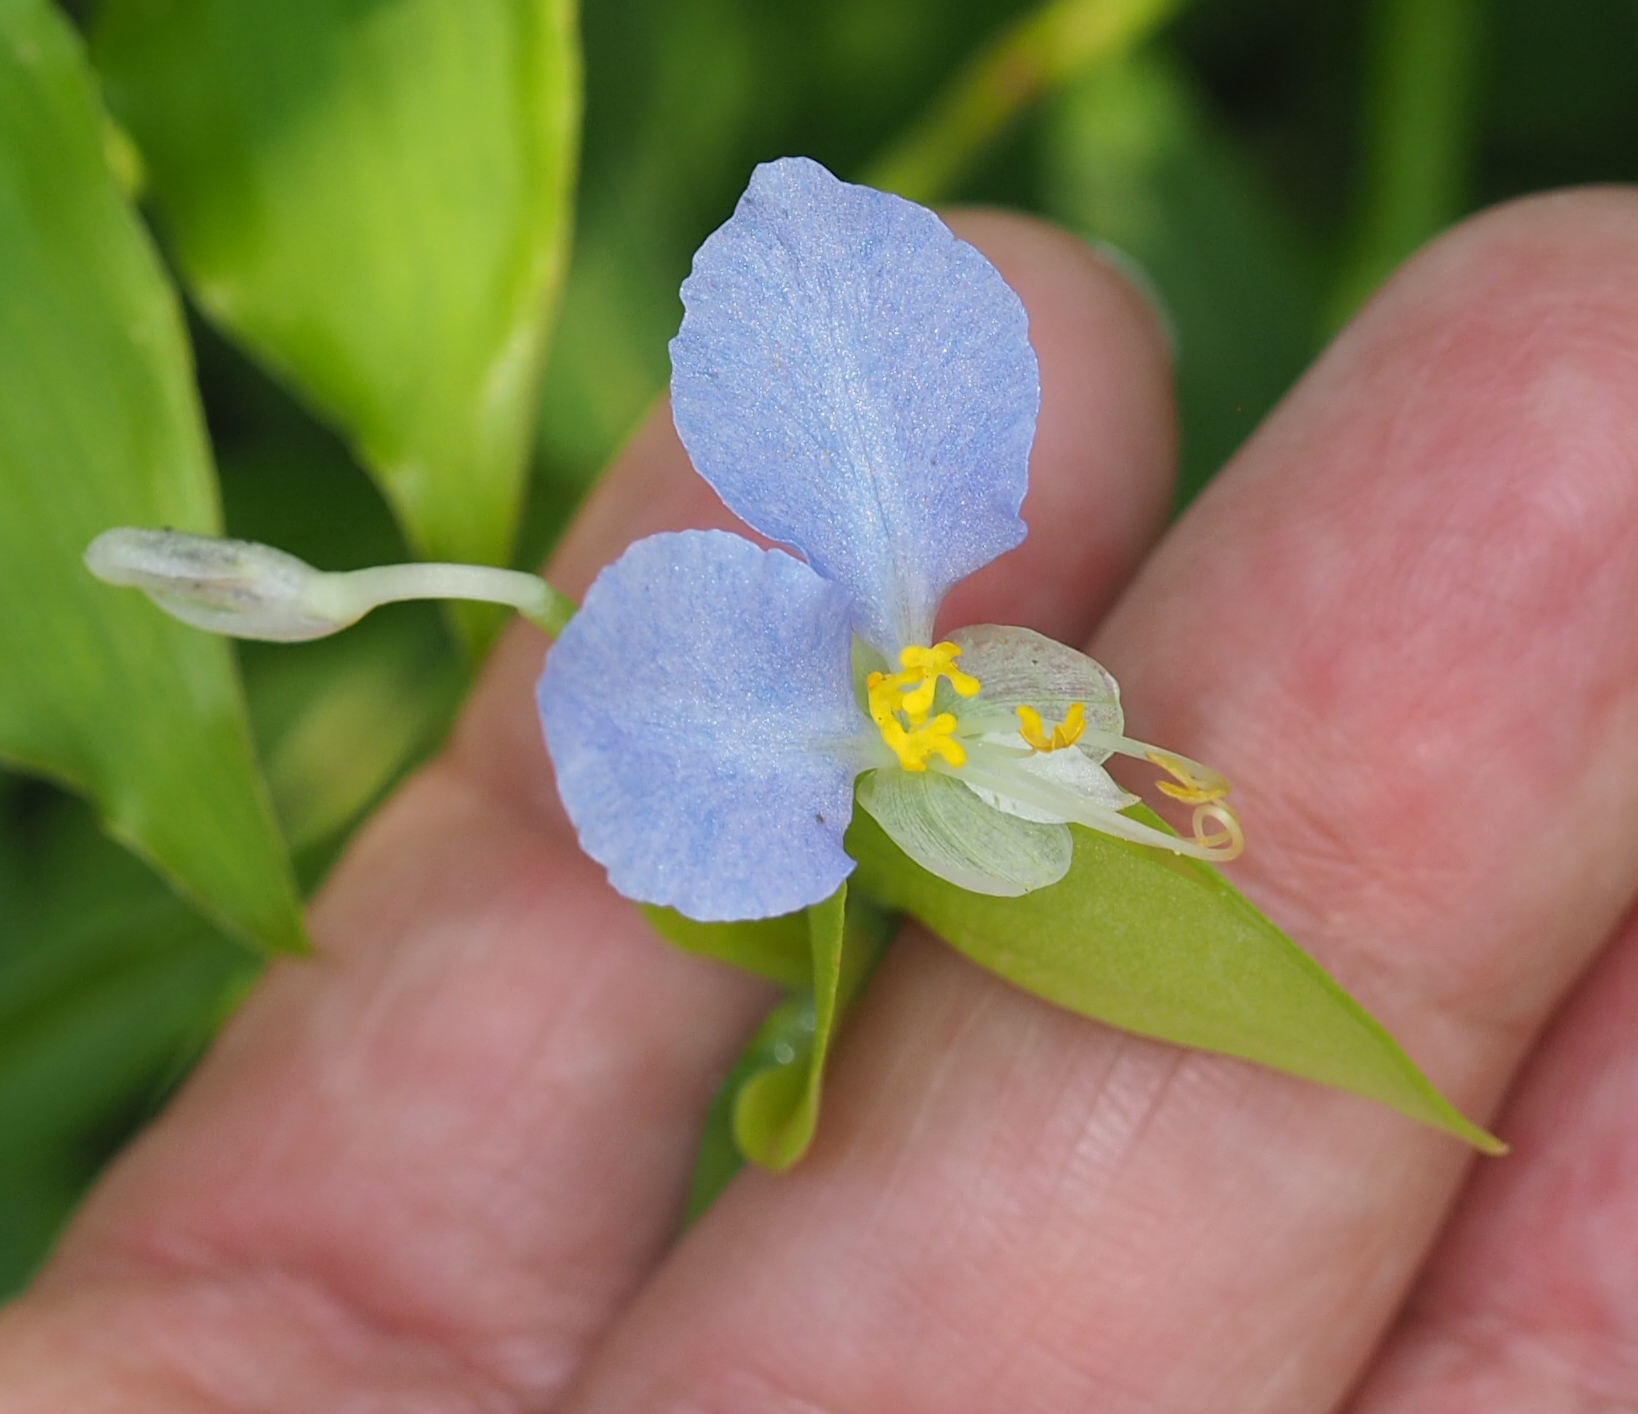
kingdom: Plantae
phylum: Tracheophyta
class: Liliopsida
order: Commelinales
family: Commelinaceae
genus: Commelina
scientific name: Commelina communis
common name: Asiatic dayflower
